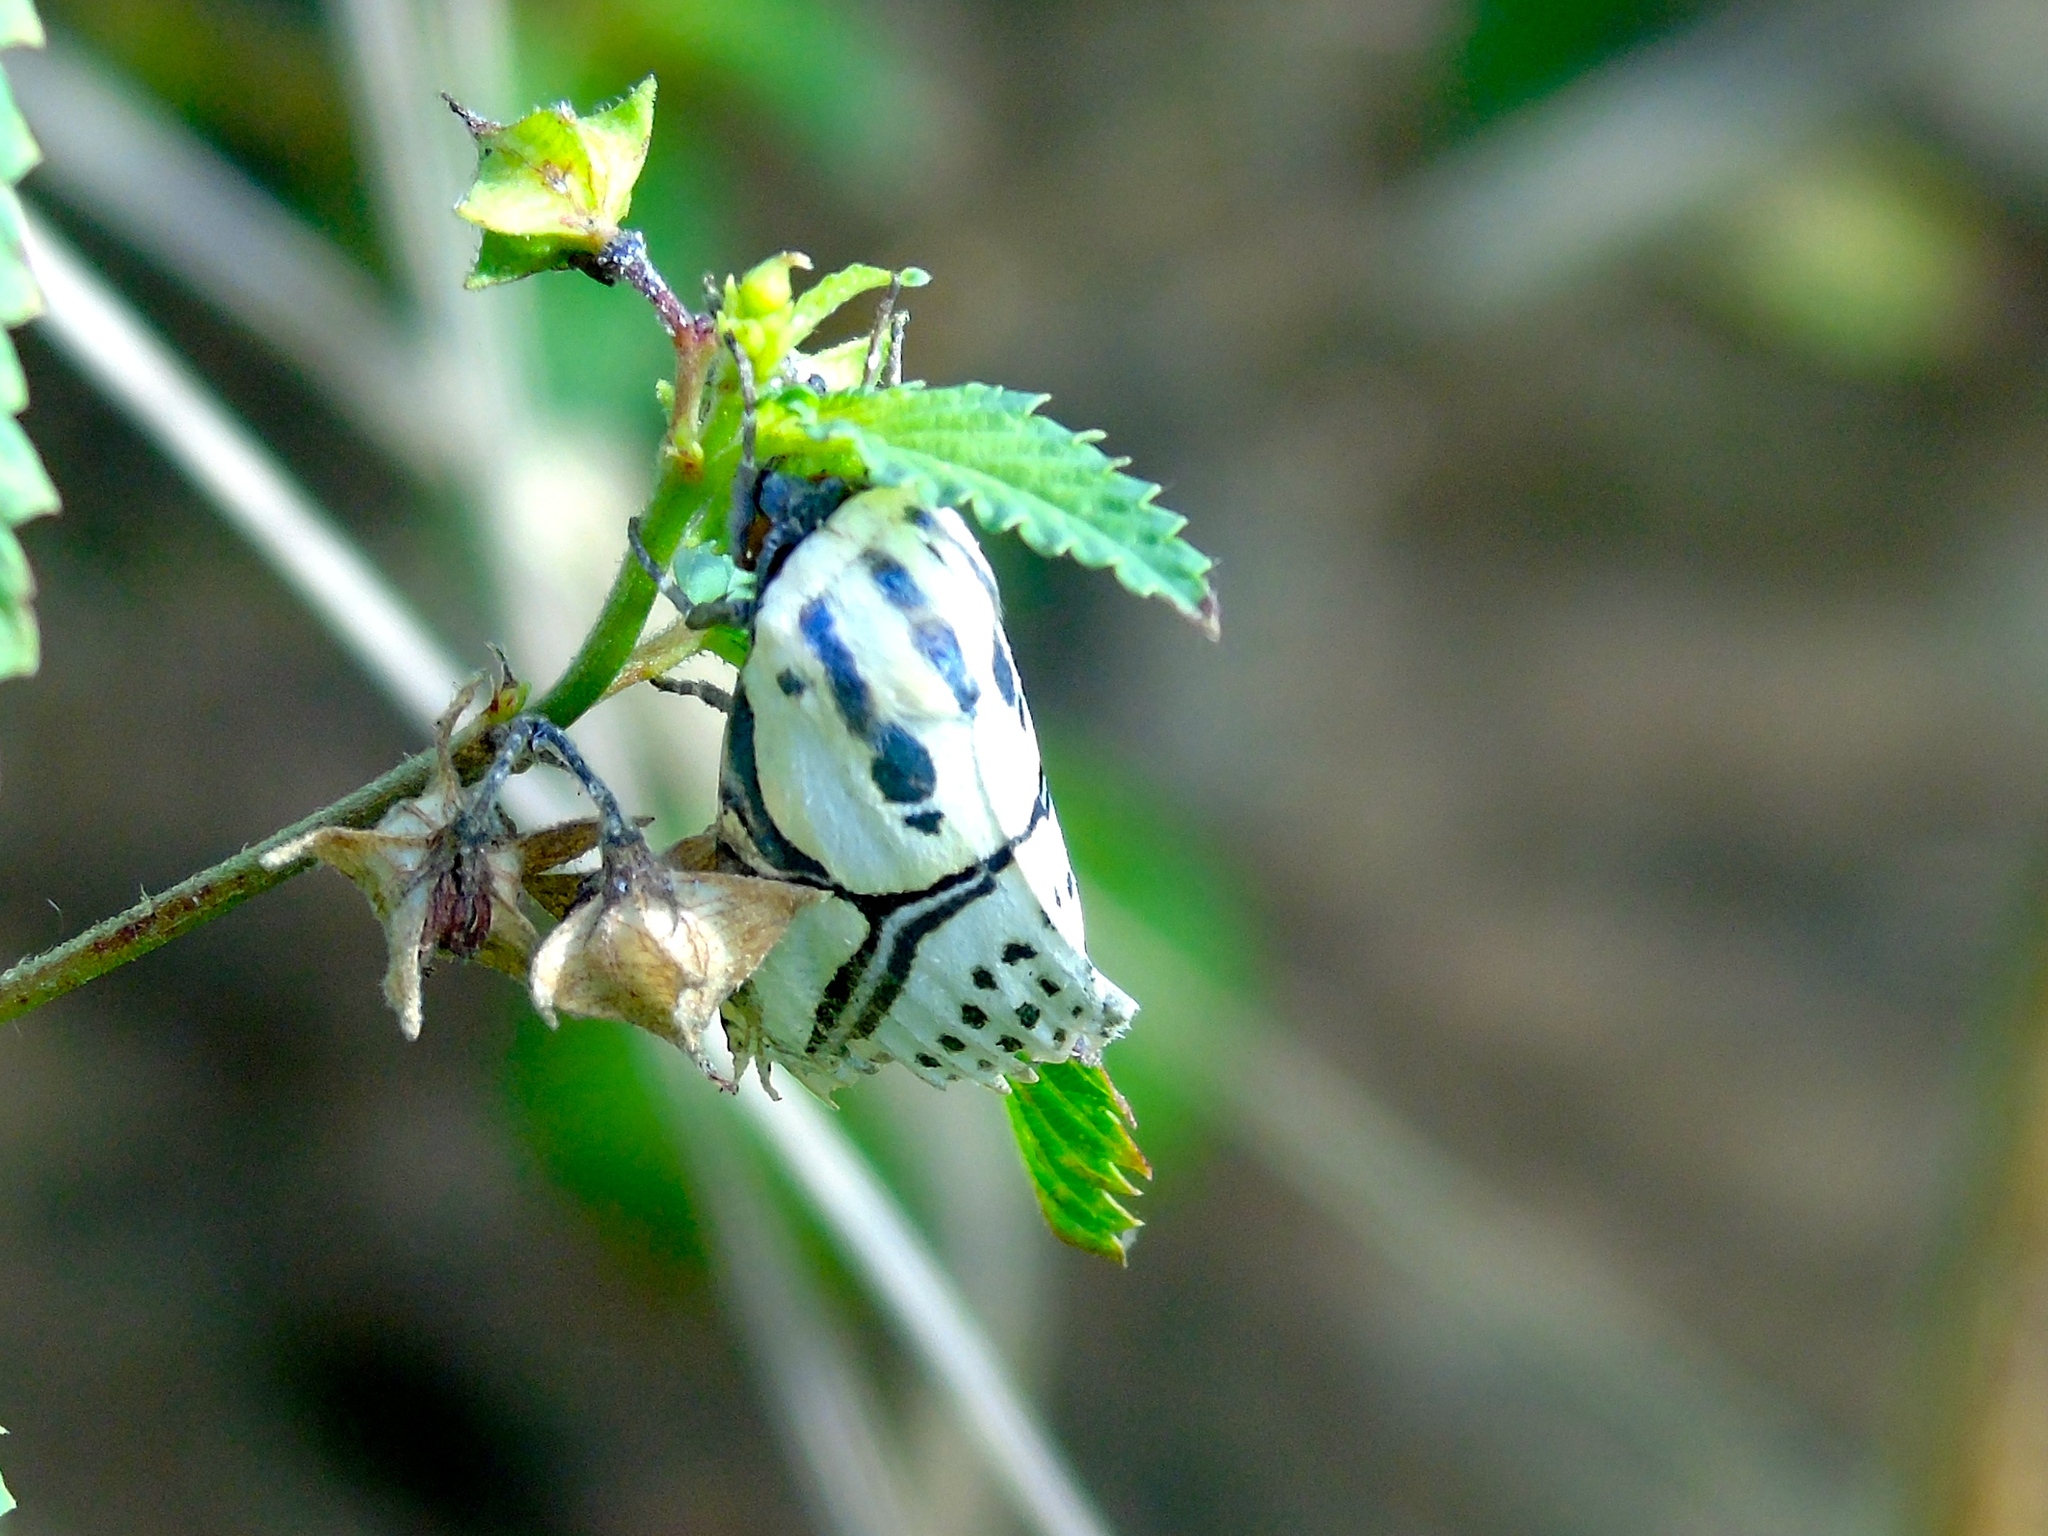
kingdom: Animalia
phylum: Arthropoda
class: Insecta
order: Lepidoptera
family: Erebidae
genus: Diphthera
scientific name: Diphthera festiva
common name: Hieroglyphic moth
